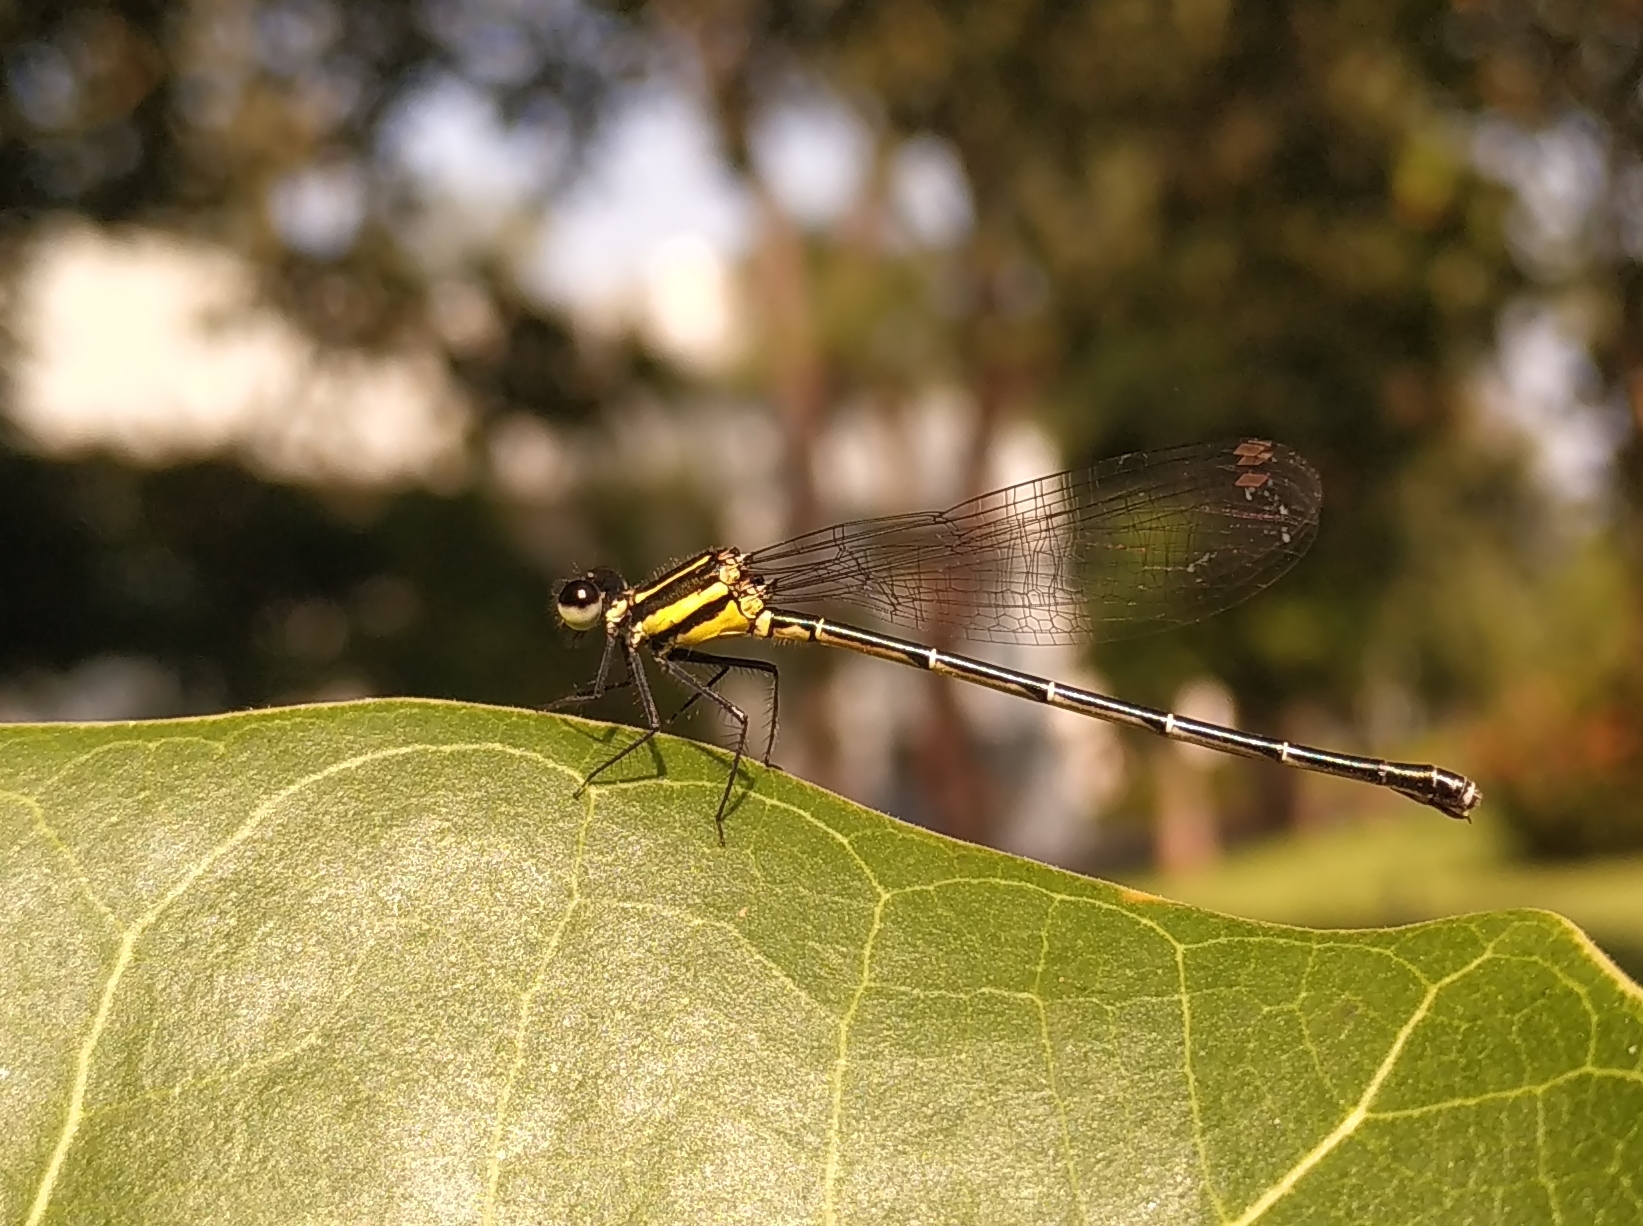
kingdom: Animalia
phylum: Arthropoda
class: Insecta
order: Odonata
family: Platycnemididae
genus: Onychargia
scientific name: Onychargia atrocyana
